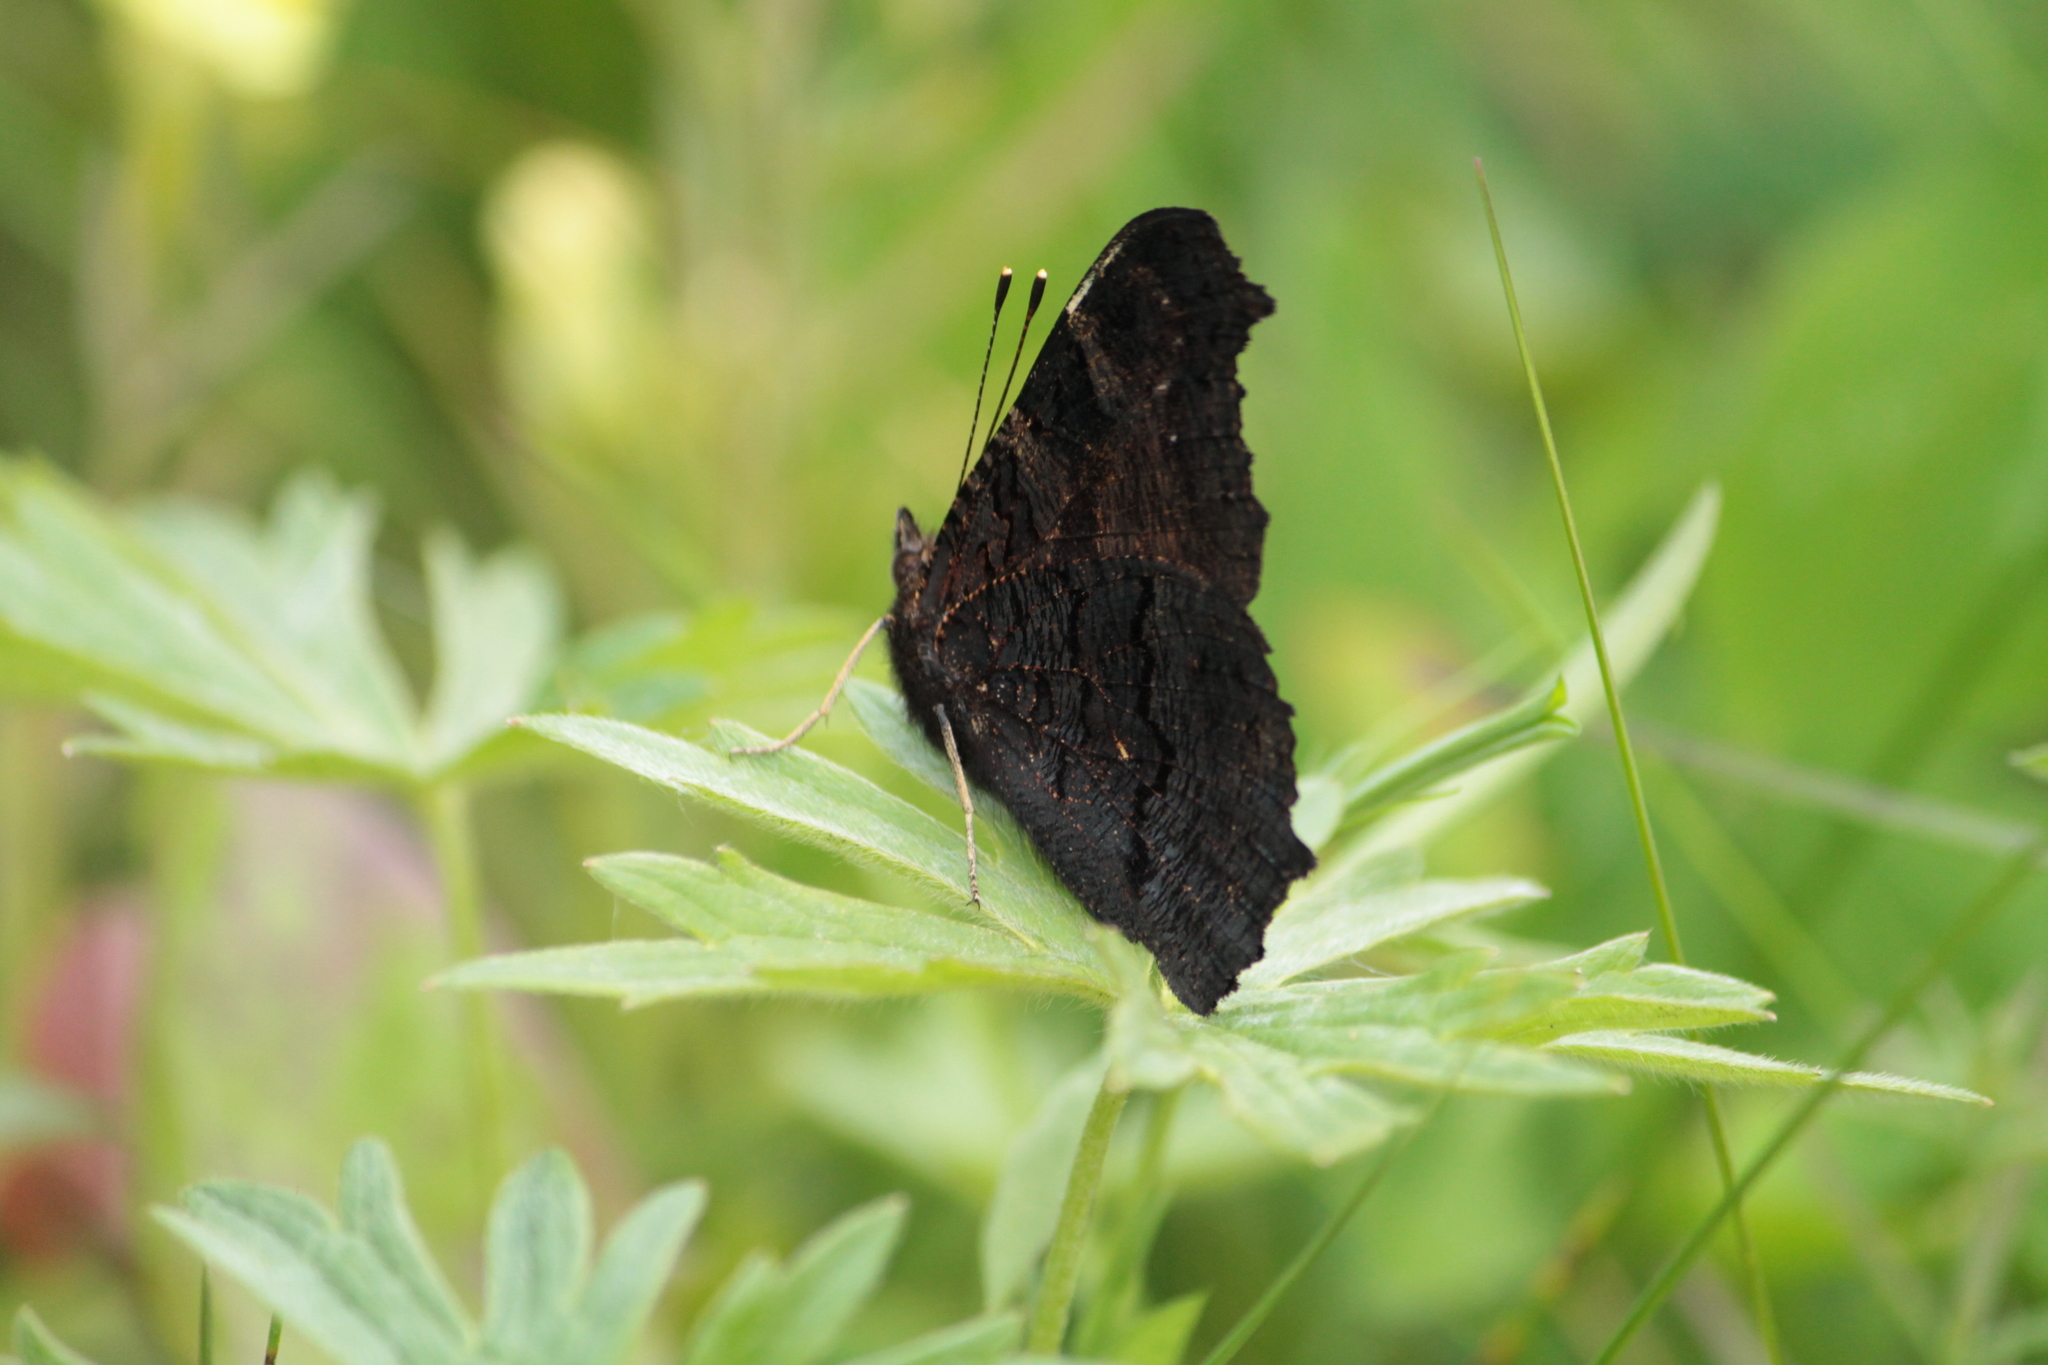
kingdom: Animalia
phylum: Arthropoda
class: Insecta
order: Lepidoptera
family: Nymphalidae
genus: Aglais
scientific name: Aglais io
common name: Peacock
